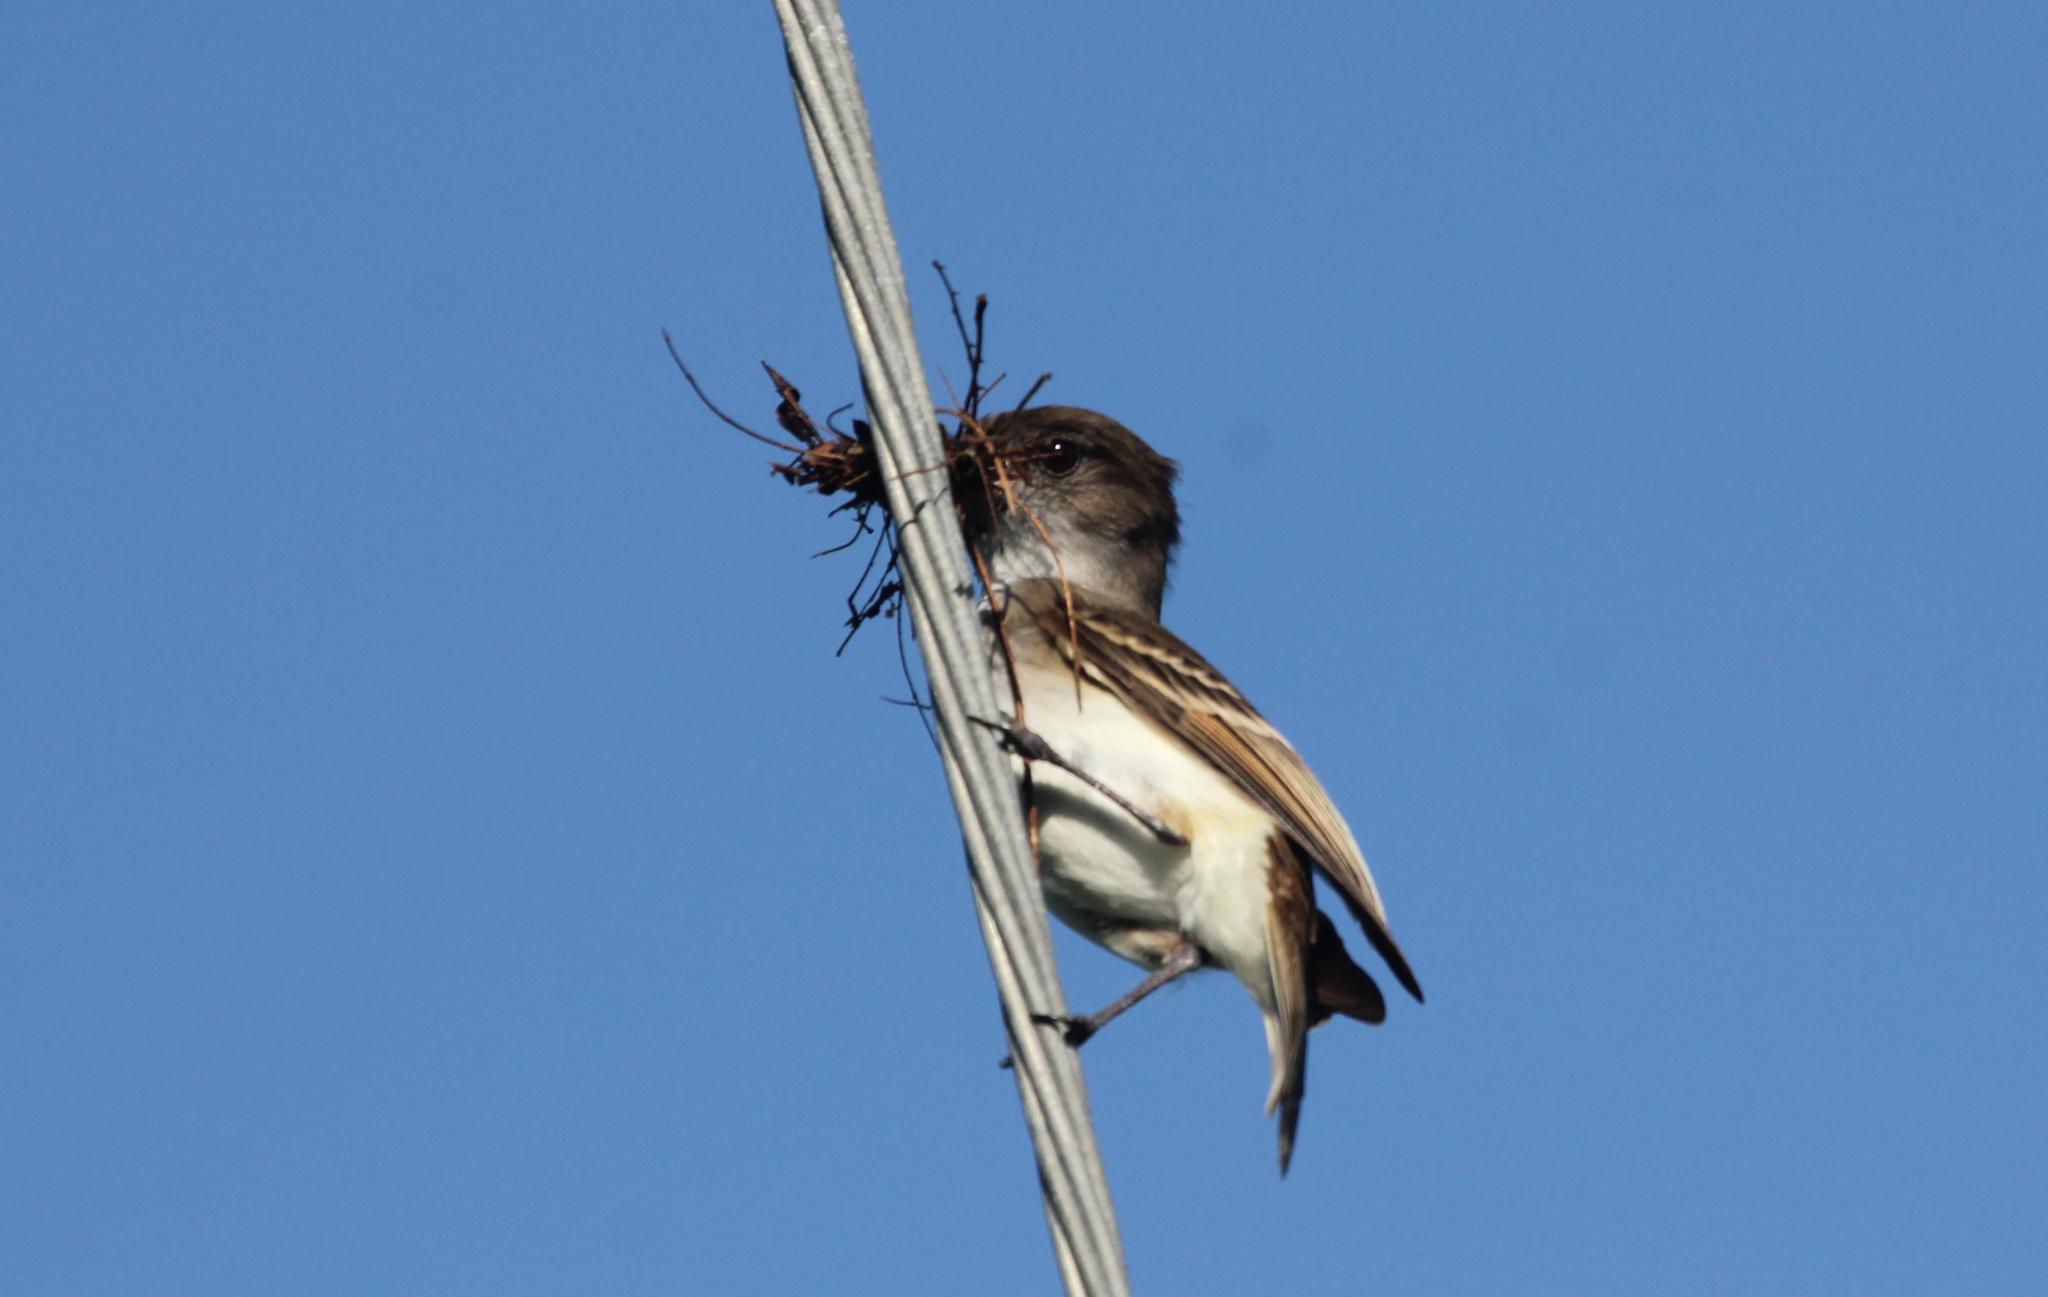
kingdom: Animalia
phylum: Chordata
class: Aves
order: Passeriformes
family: Tyrannidae
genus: Myiarchus
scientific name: Myiarchus antillarum
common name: Puerto rican flycatcher
